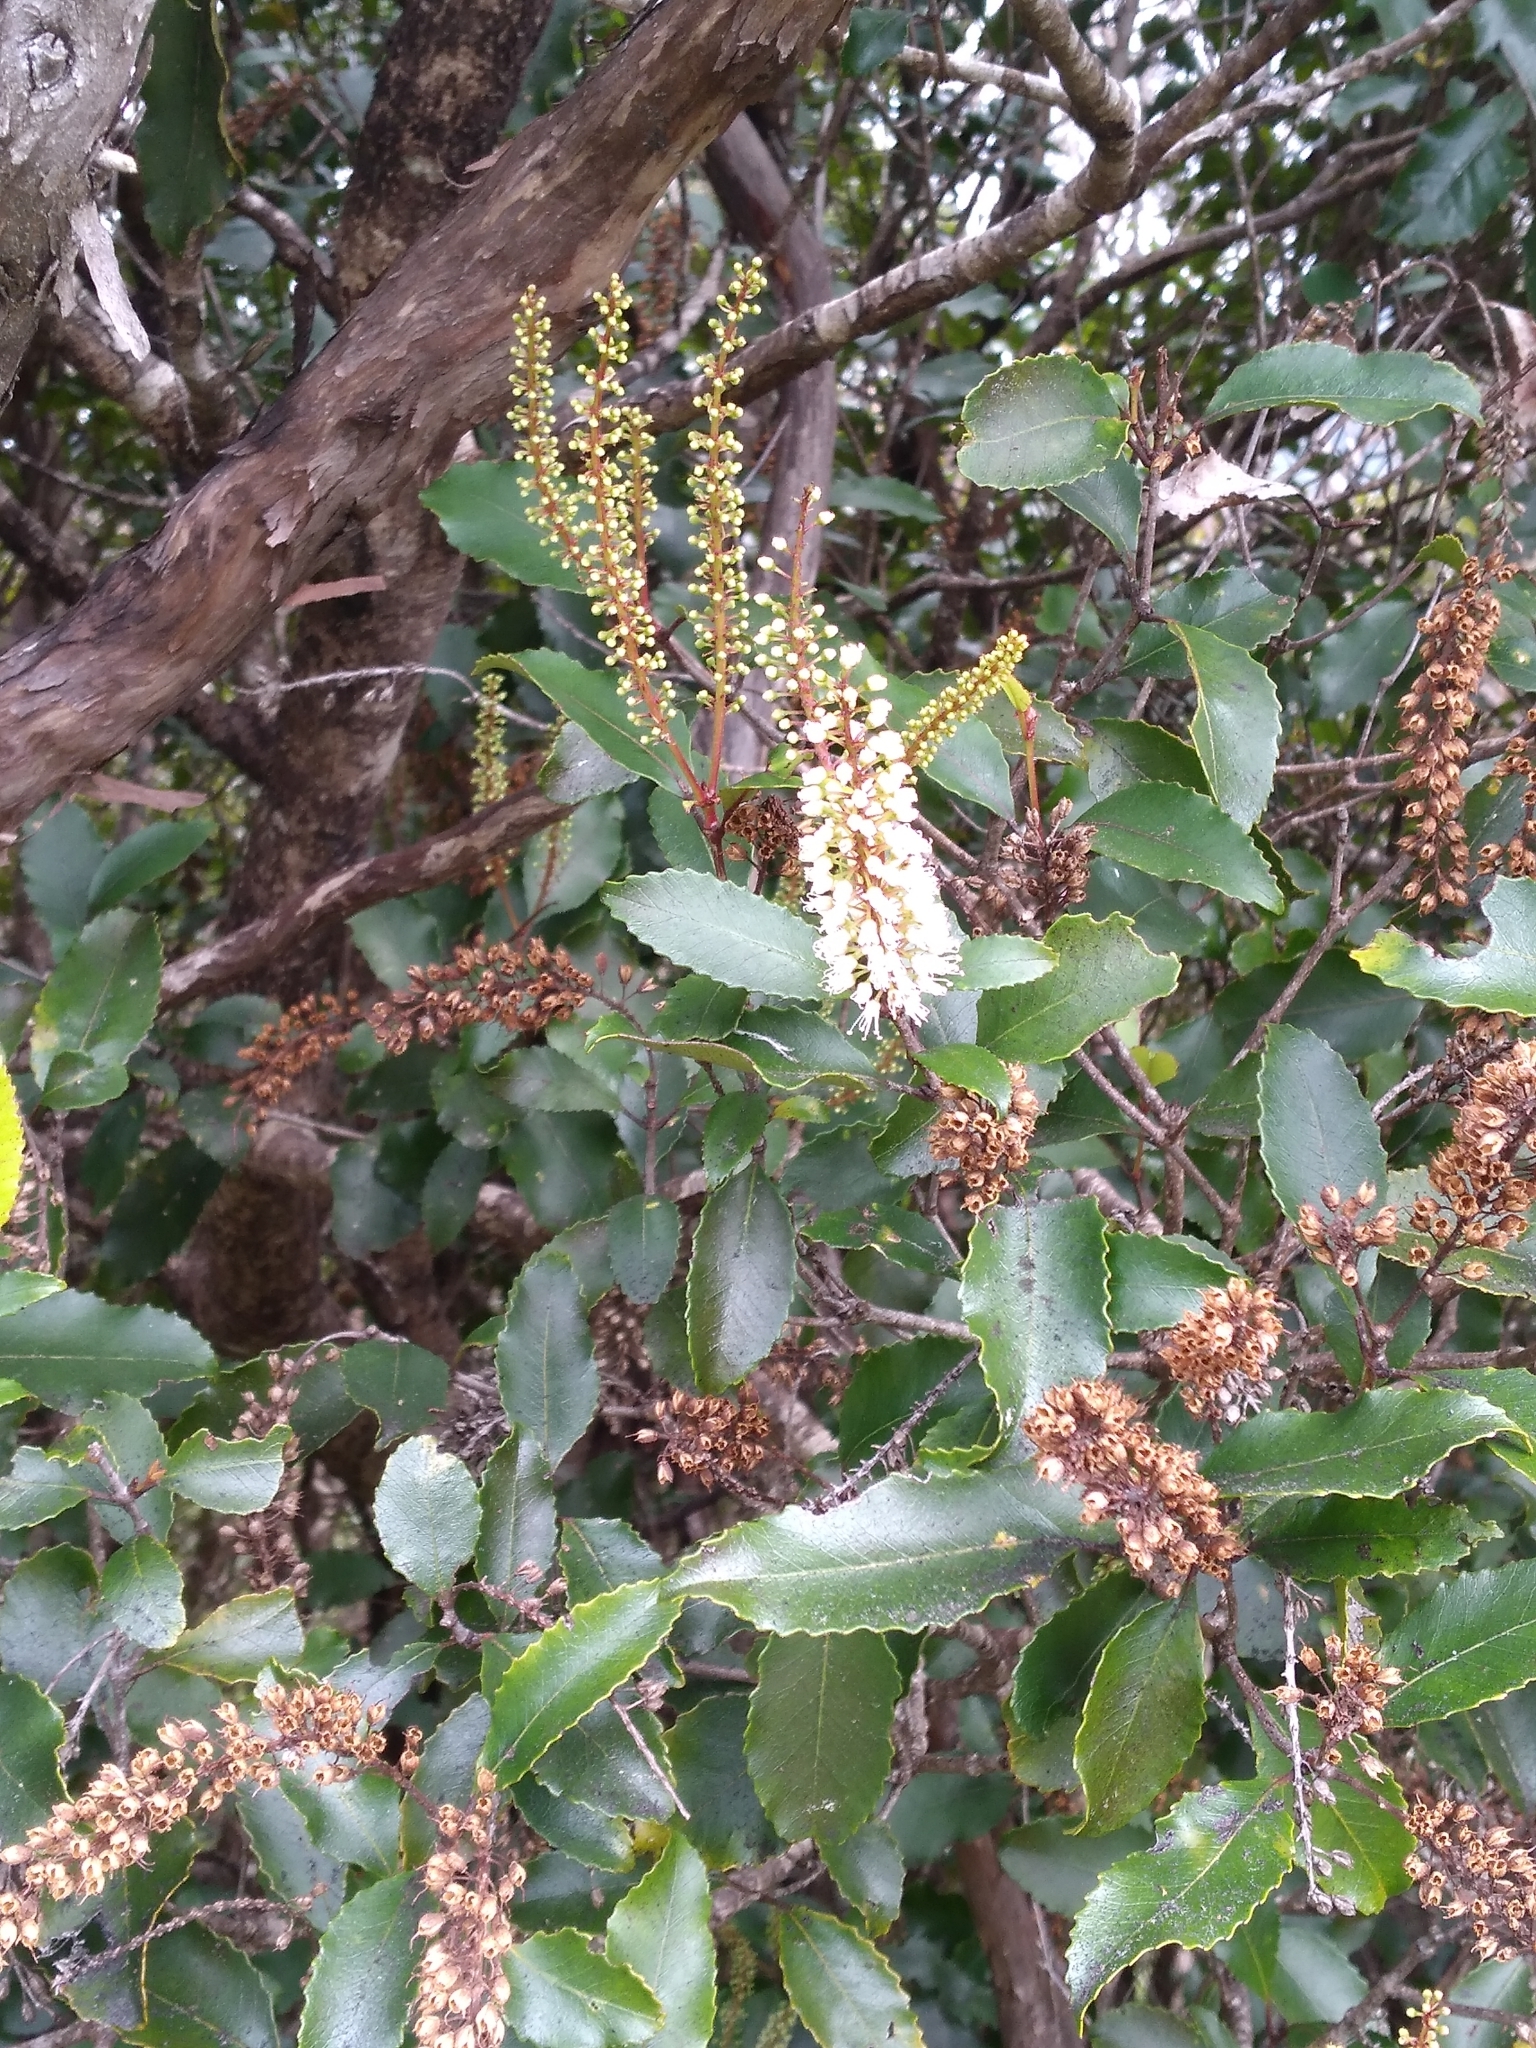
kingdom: Plantae
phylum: Tracheophyta
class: Magnoliopsida
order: Oxalidales
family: Cunoniaceae
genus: Pterophylla
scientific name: Pterophylla racemosa
